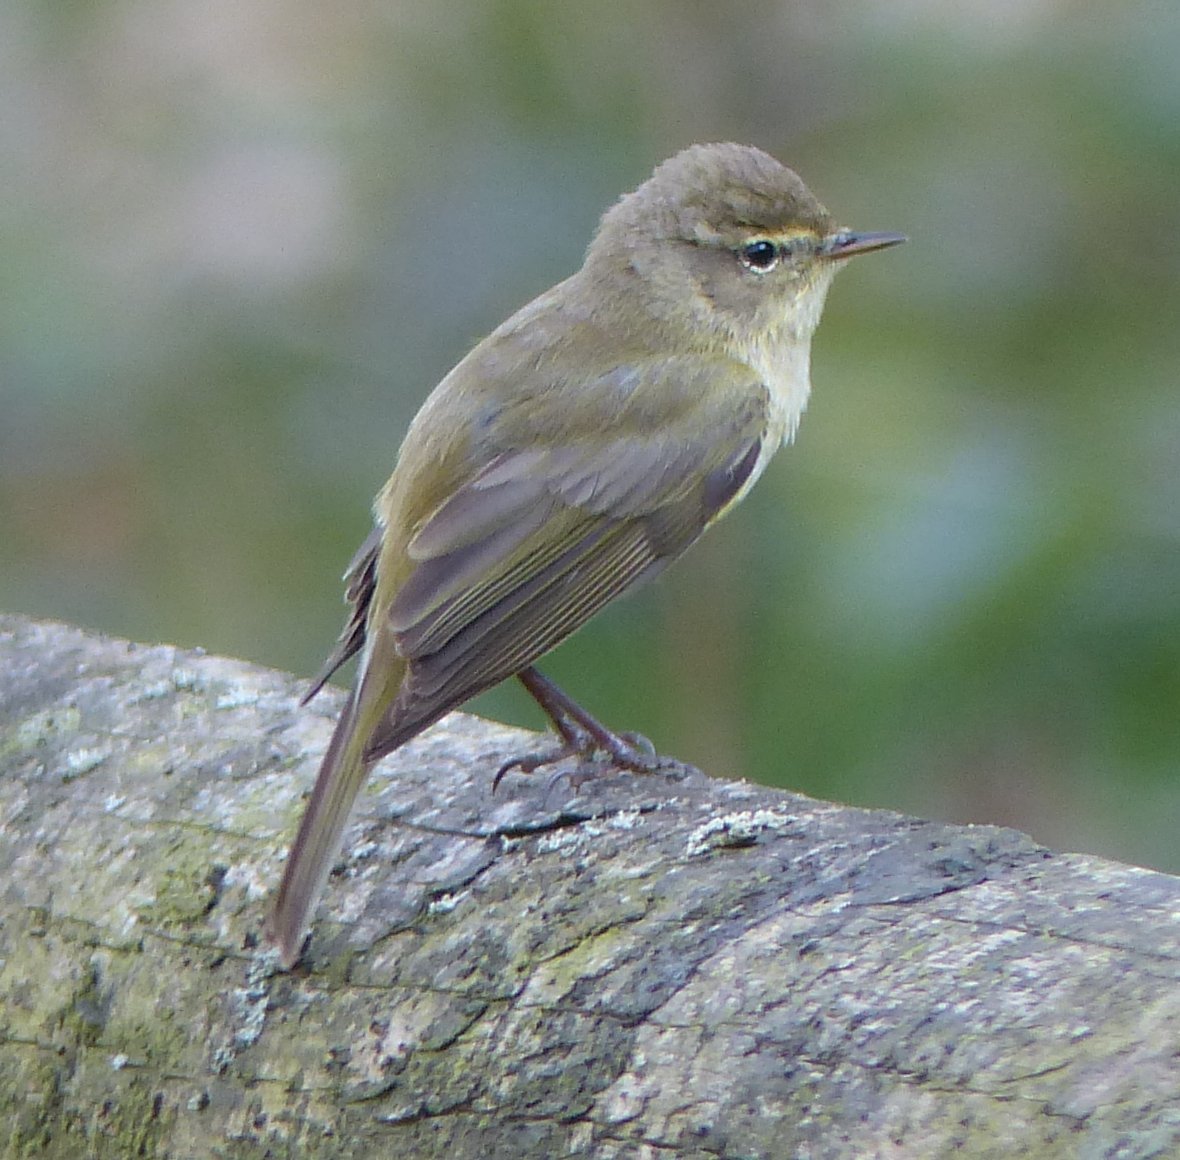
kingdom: Animalia
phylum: Chordata
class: Aves
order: Passeriformes
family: Phylloscopidae
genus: Phylloscopus
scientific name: Phylloscopus collybita
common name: Common chiffchaff
